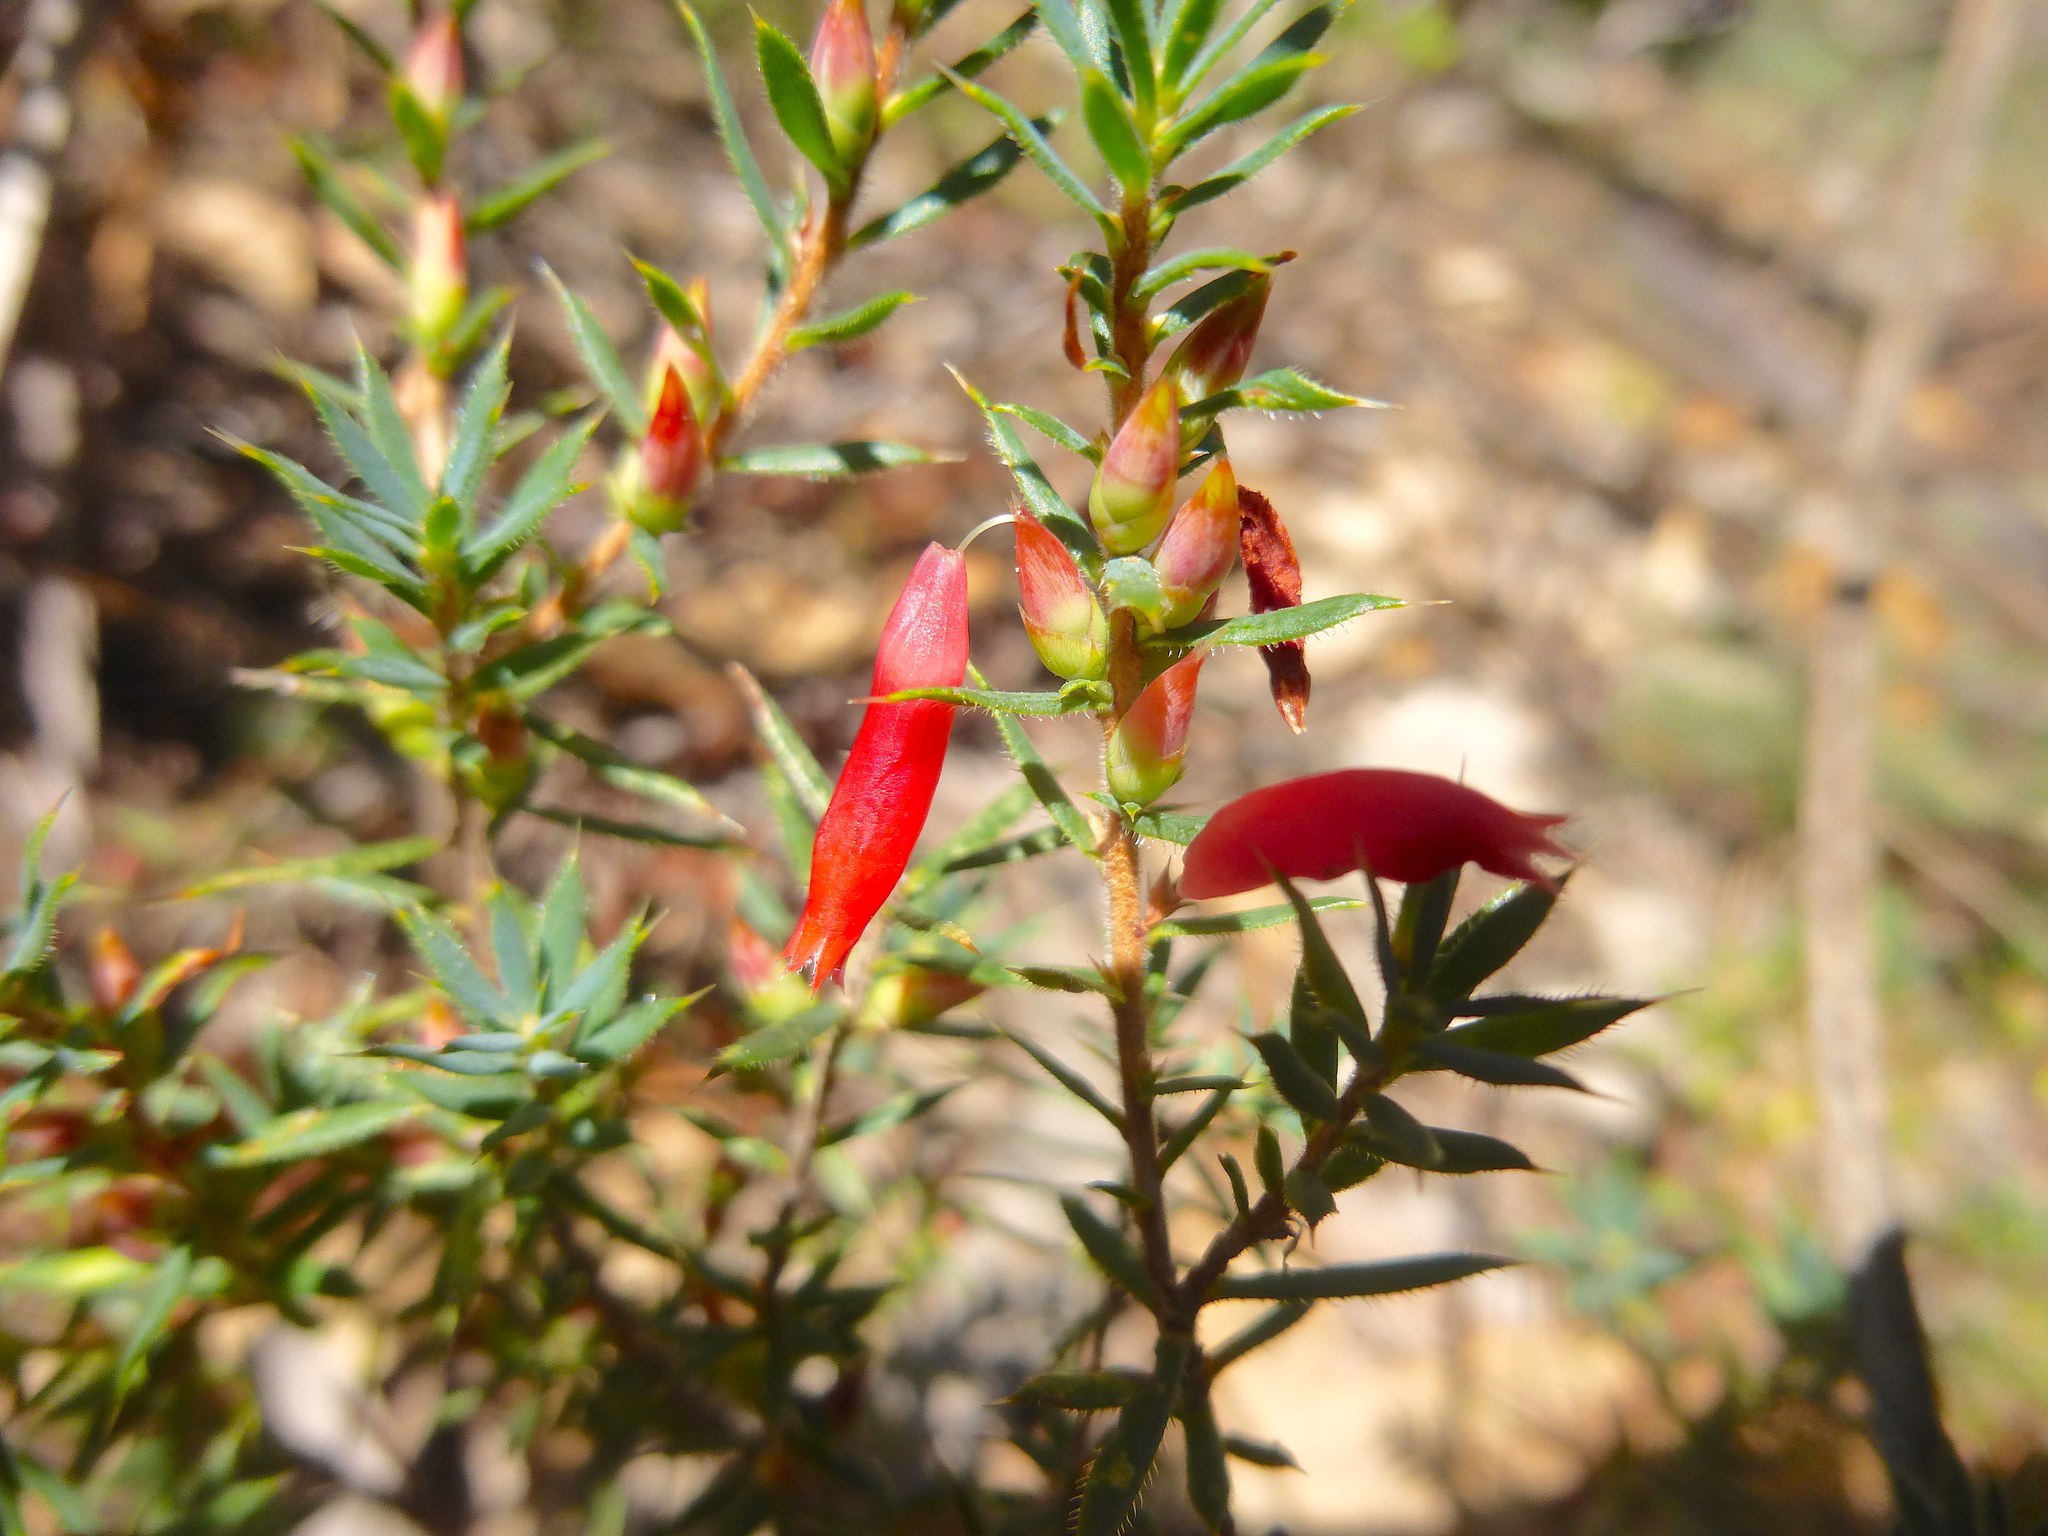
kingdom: Plantae
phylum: Tracheophyta
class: Magnoliopsida
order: Ericales
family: Ericaceae
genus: Styphelia
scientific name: Styphelia humifusa
